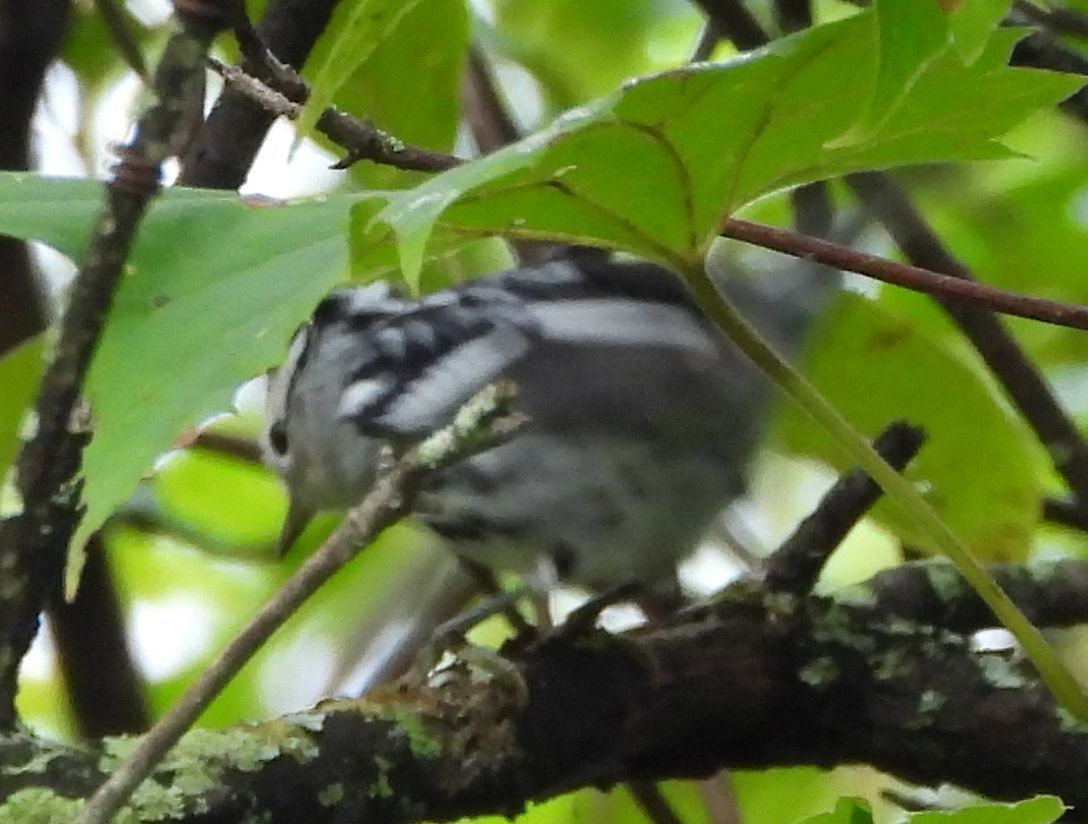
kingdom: Animalia
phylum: Chordata
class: Aves
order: Passeriformes
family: Parulidae
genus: Mniotilta
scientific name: Mniotilta varia
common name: Black-and-white warbler
